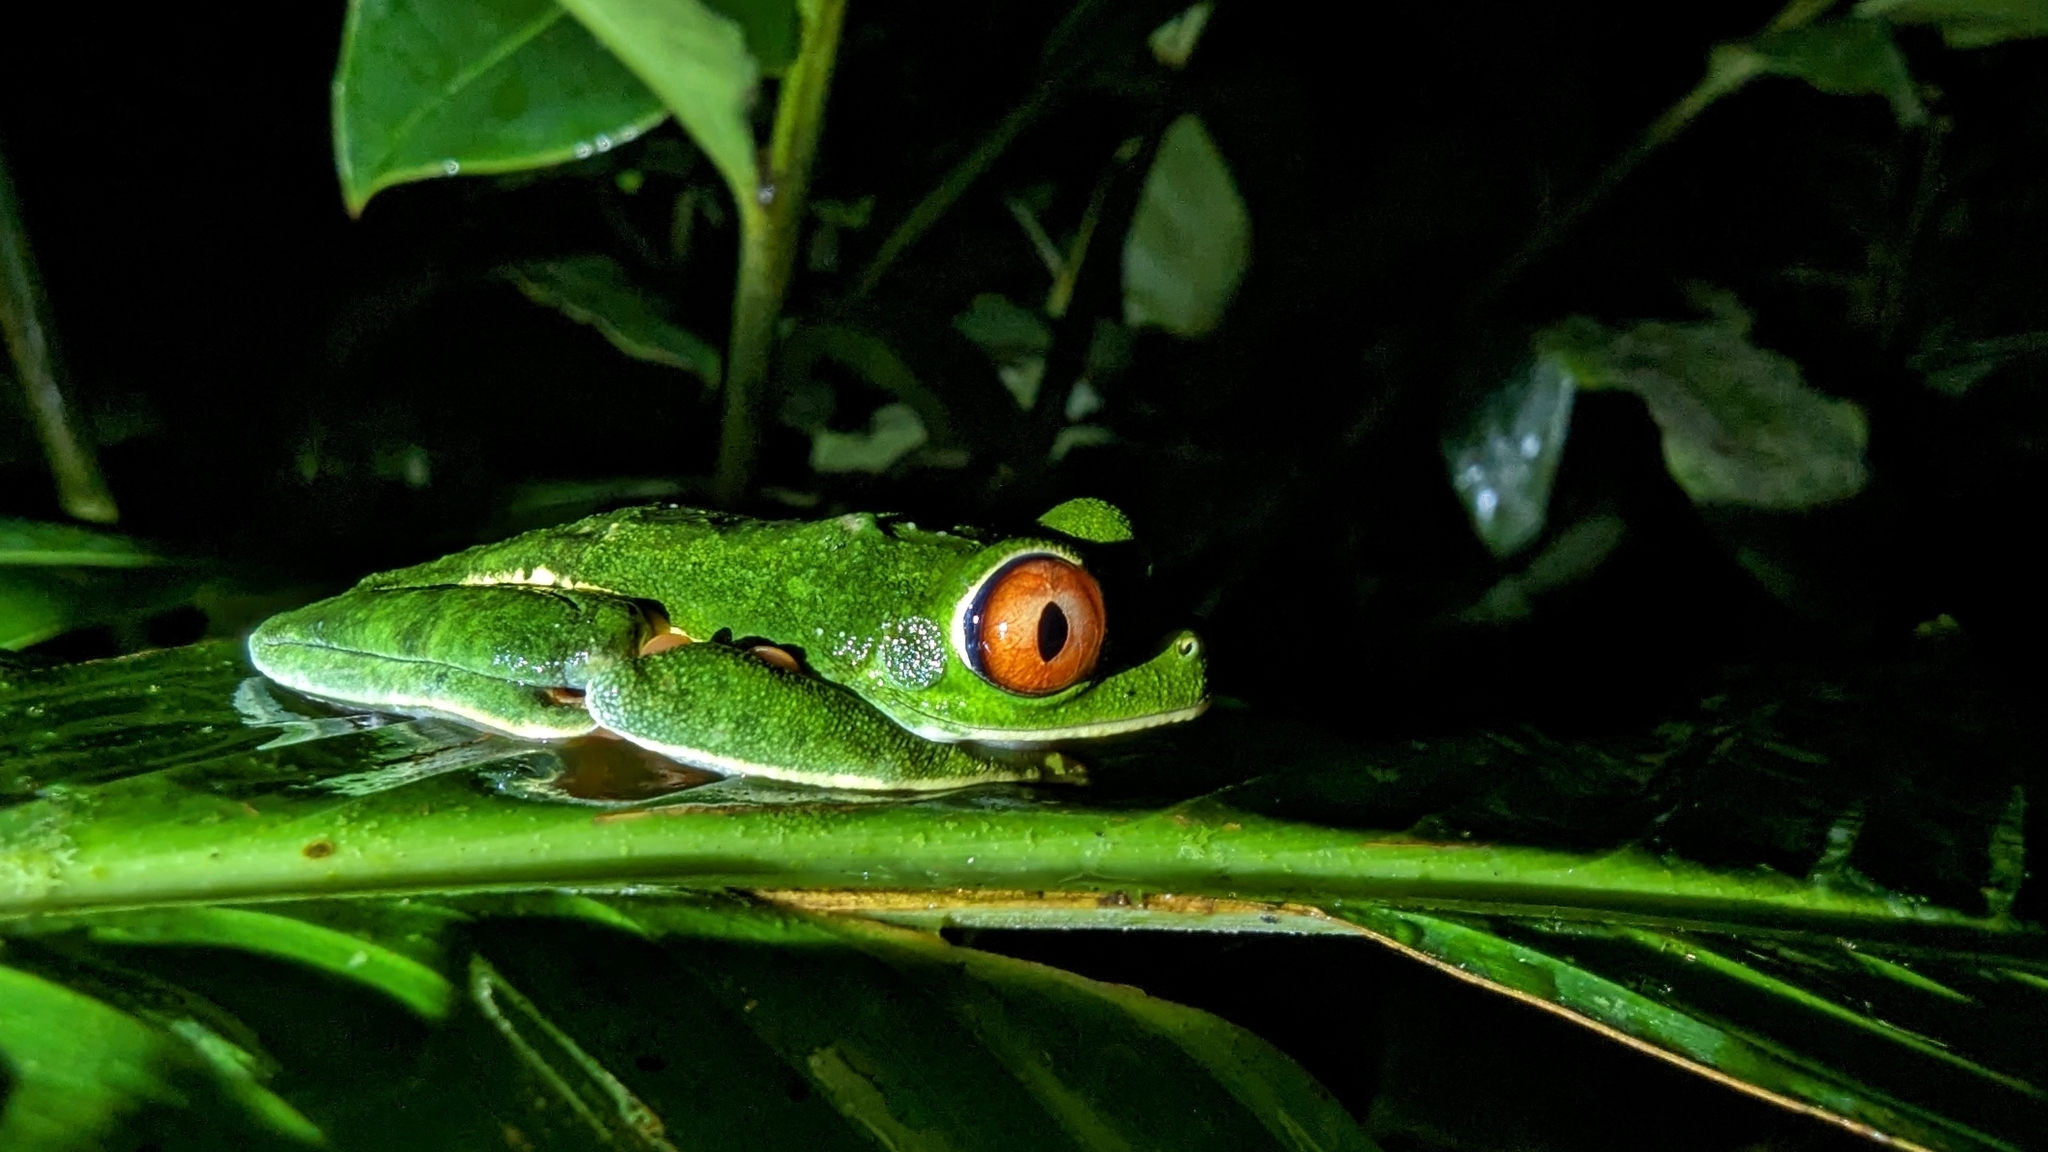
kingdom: Animalia
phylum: Chordata
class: Amphibia
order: Anura
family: Phyllomedusidae
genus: Agalychnis
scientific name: Agalychnis callidryas
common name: Red-eyed treefrog
